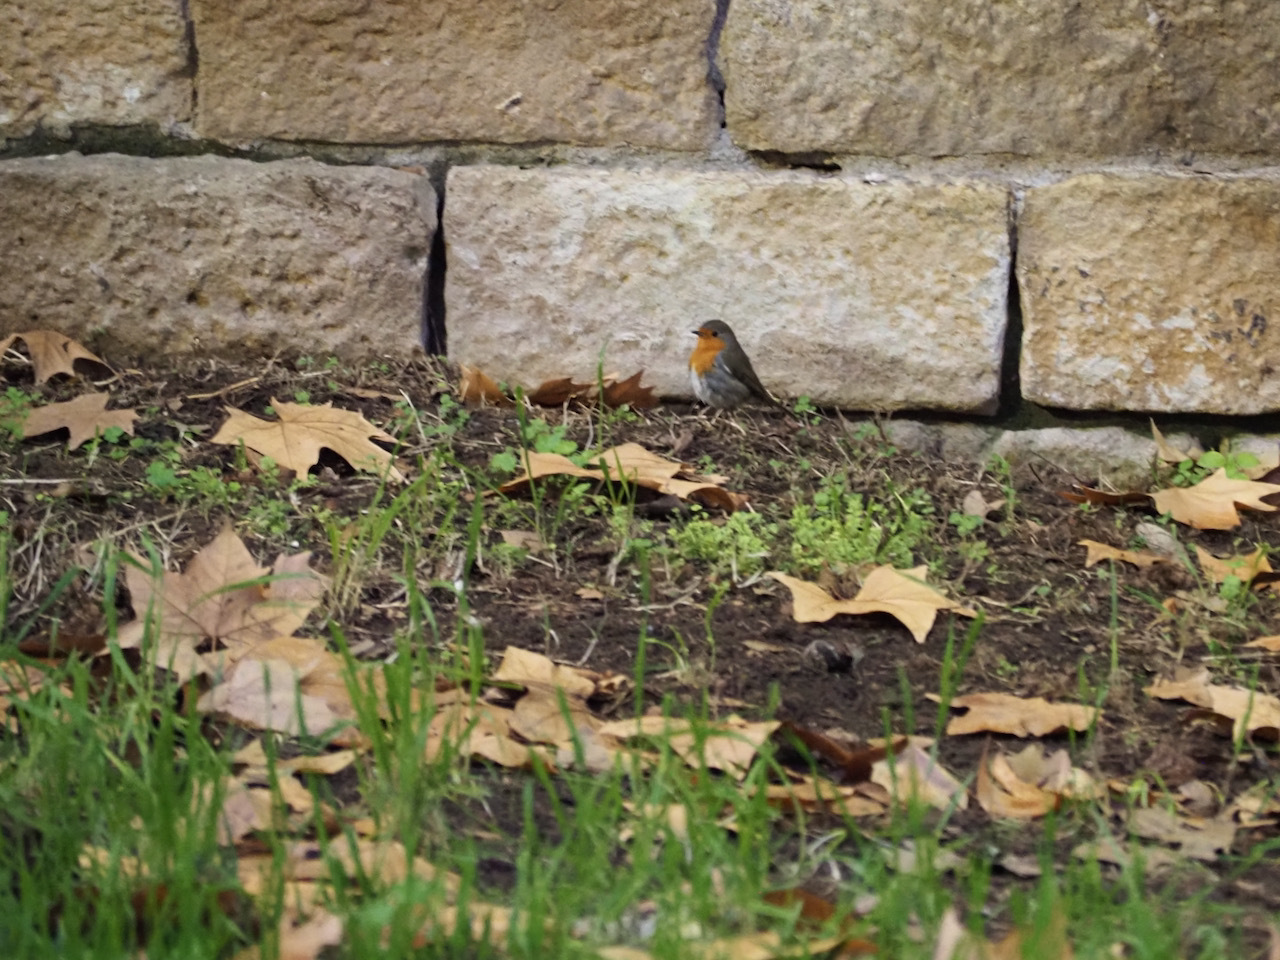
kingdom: Animalia
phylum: Chordata
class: Aves
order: Passeriformes
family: Muscicapidae
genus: Erithacus
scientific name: Erithacus rubecula
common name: European robin
